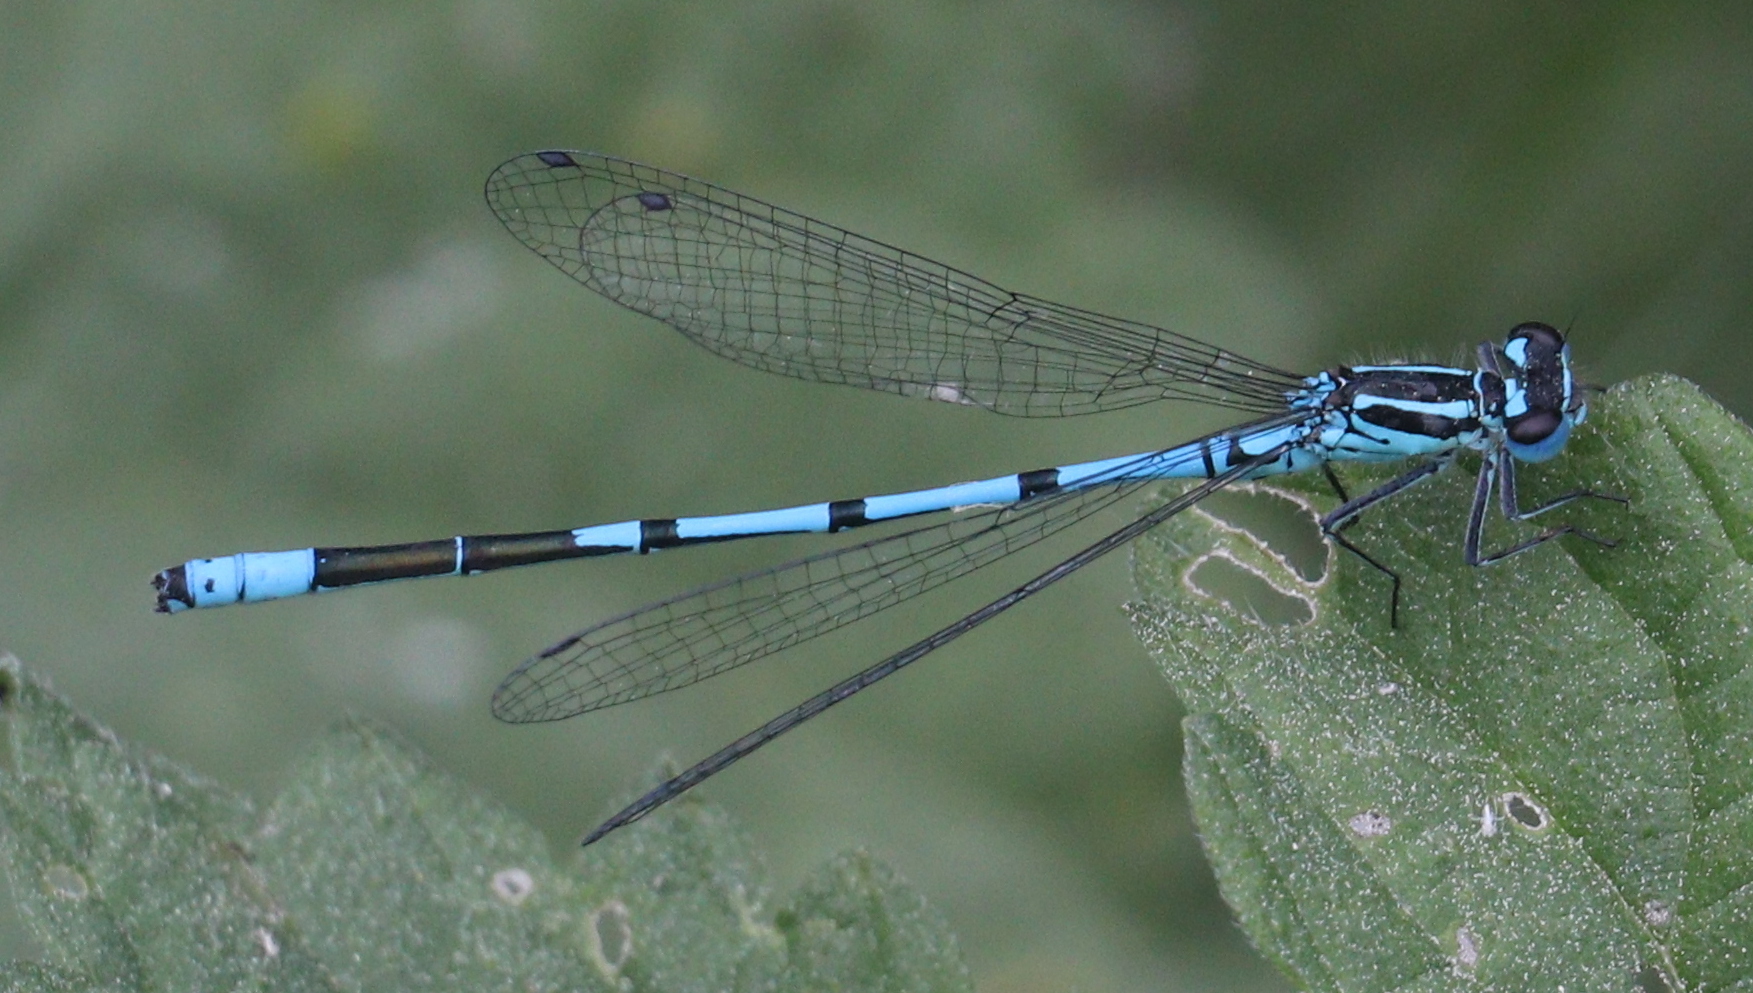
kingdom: Animalia
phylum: Arthropoda
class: Insecta
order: Odonata
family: Coenagrionidae
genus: Coenagrion
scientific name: Coenagrion puella
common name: Azure damselfly
